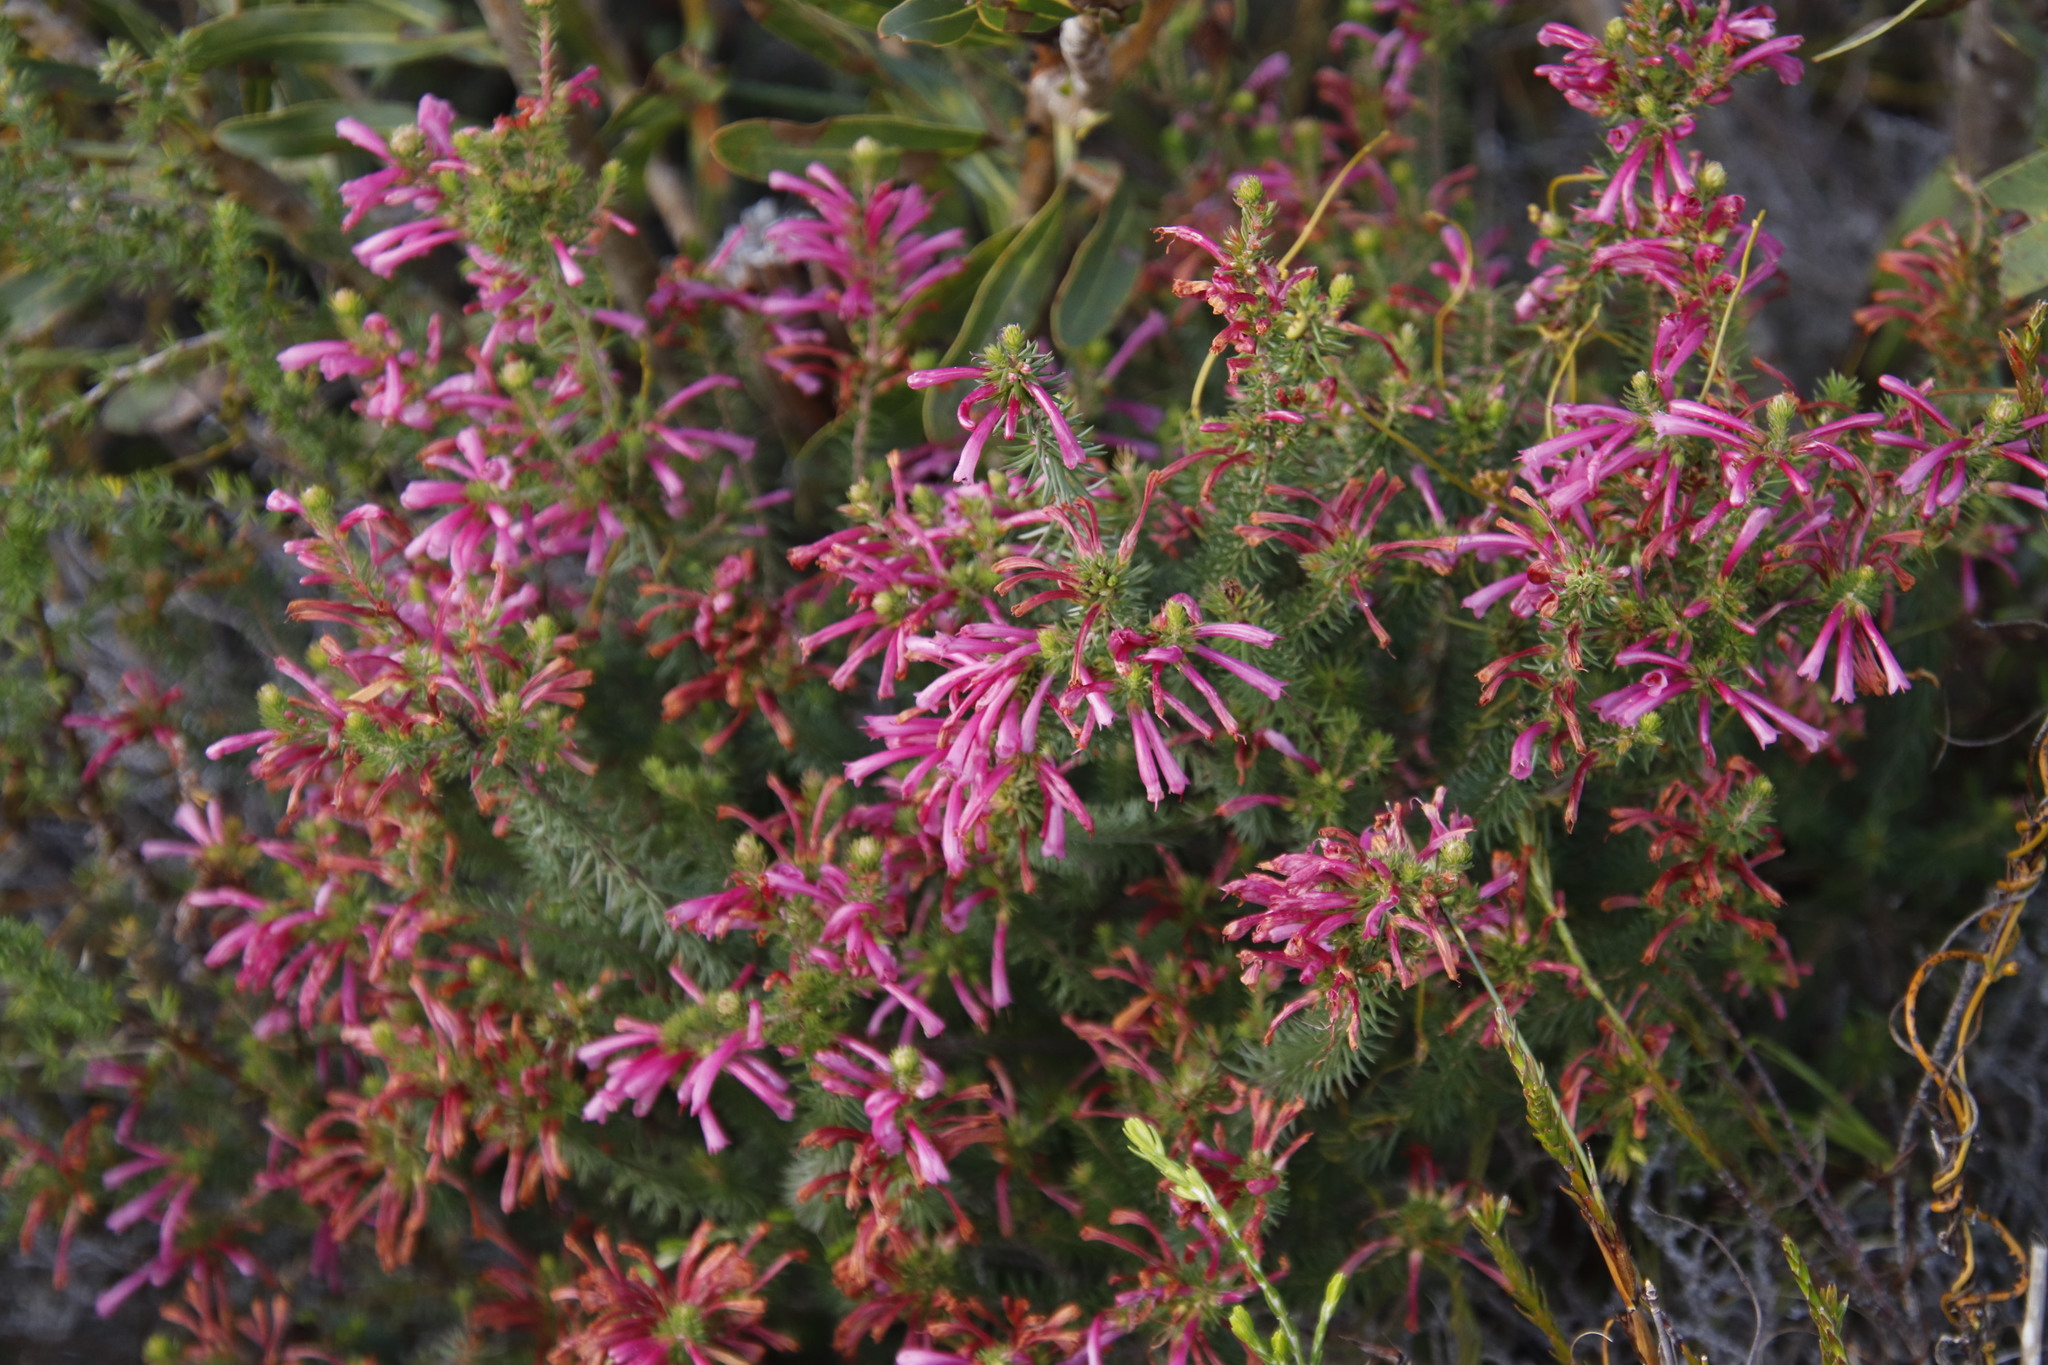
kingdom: Plantae
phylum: Tracheophyta
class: Magnoliopsida
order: Ericales
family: Ericaceae
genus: Erica
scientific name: Erica abietina
